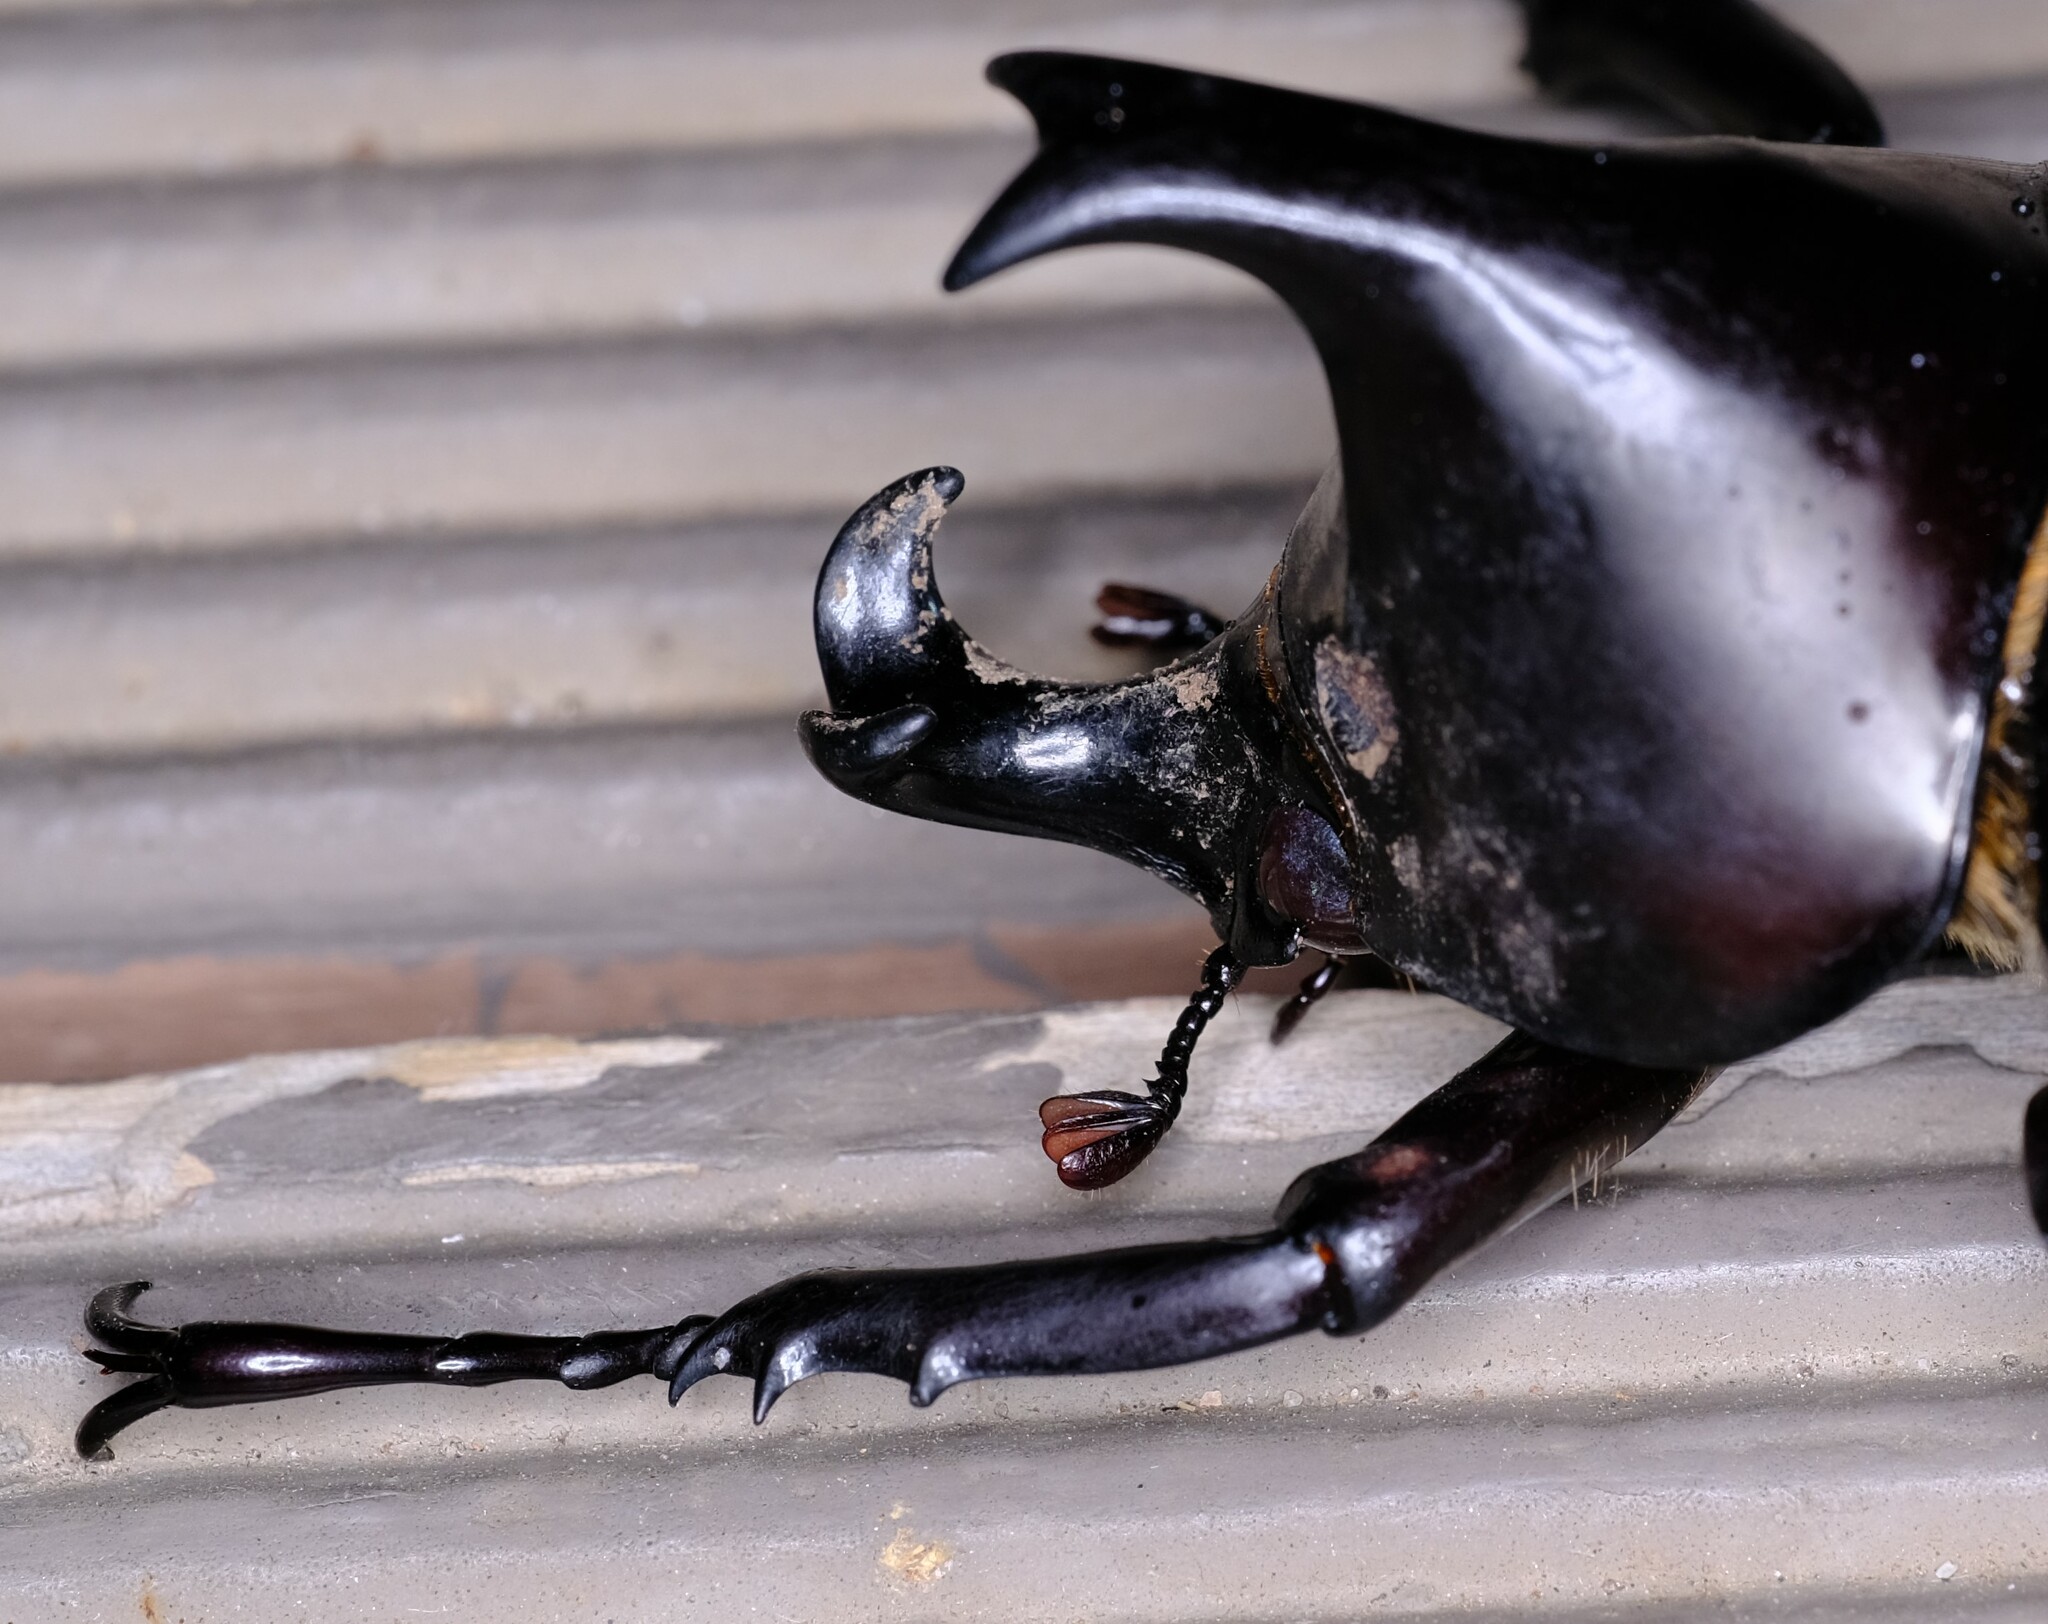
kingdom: Animalia
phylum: Arthropoda
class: Insecta
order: Coleoptera
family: Scarabaeidae
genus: Xylotrupes
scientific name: Xylotrupes australicus
